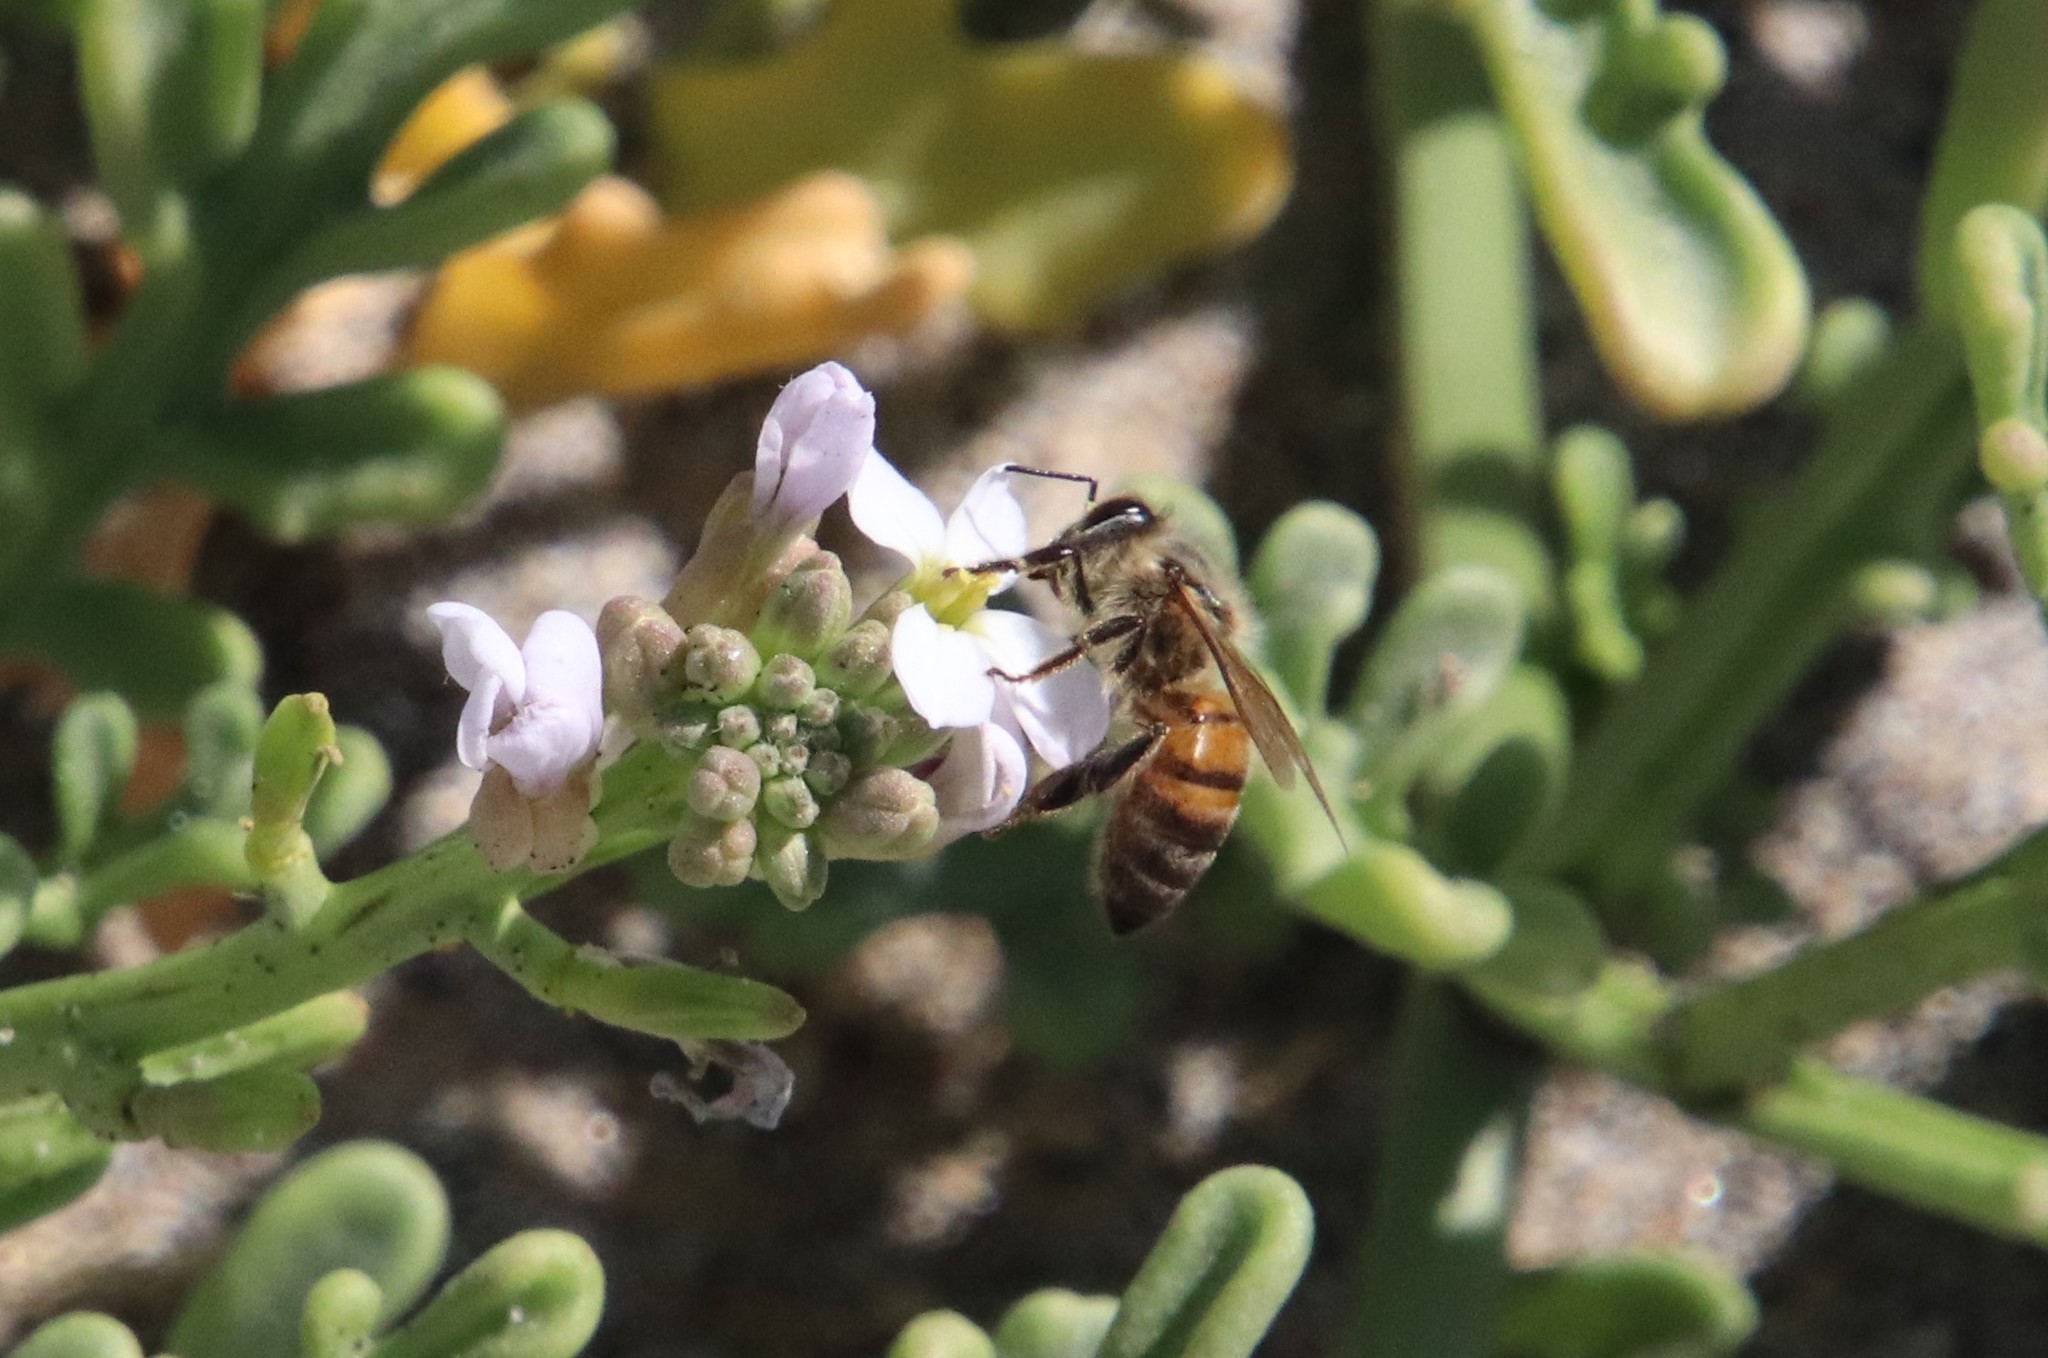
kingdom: Animalia
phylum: Arthropoda
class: Insecta
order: Hymenoptera
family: Apidae
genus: Apis
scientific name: Apis mellifera
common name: Honey bee
